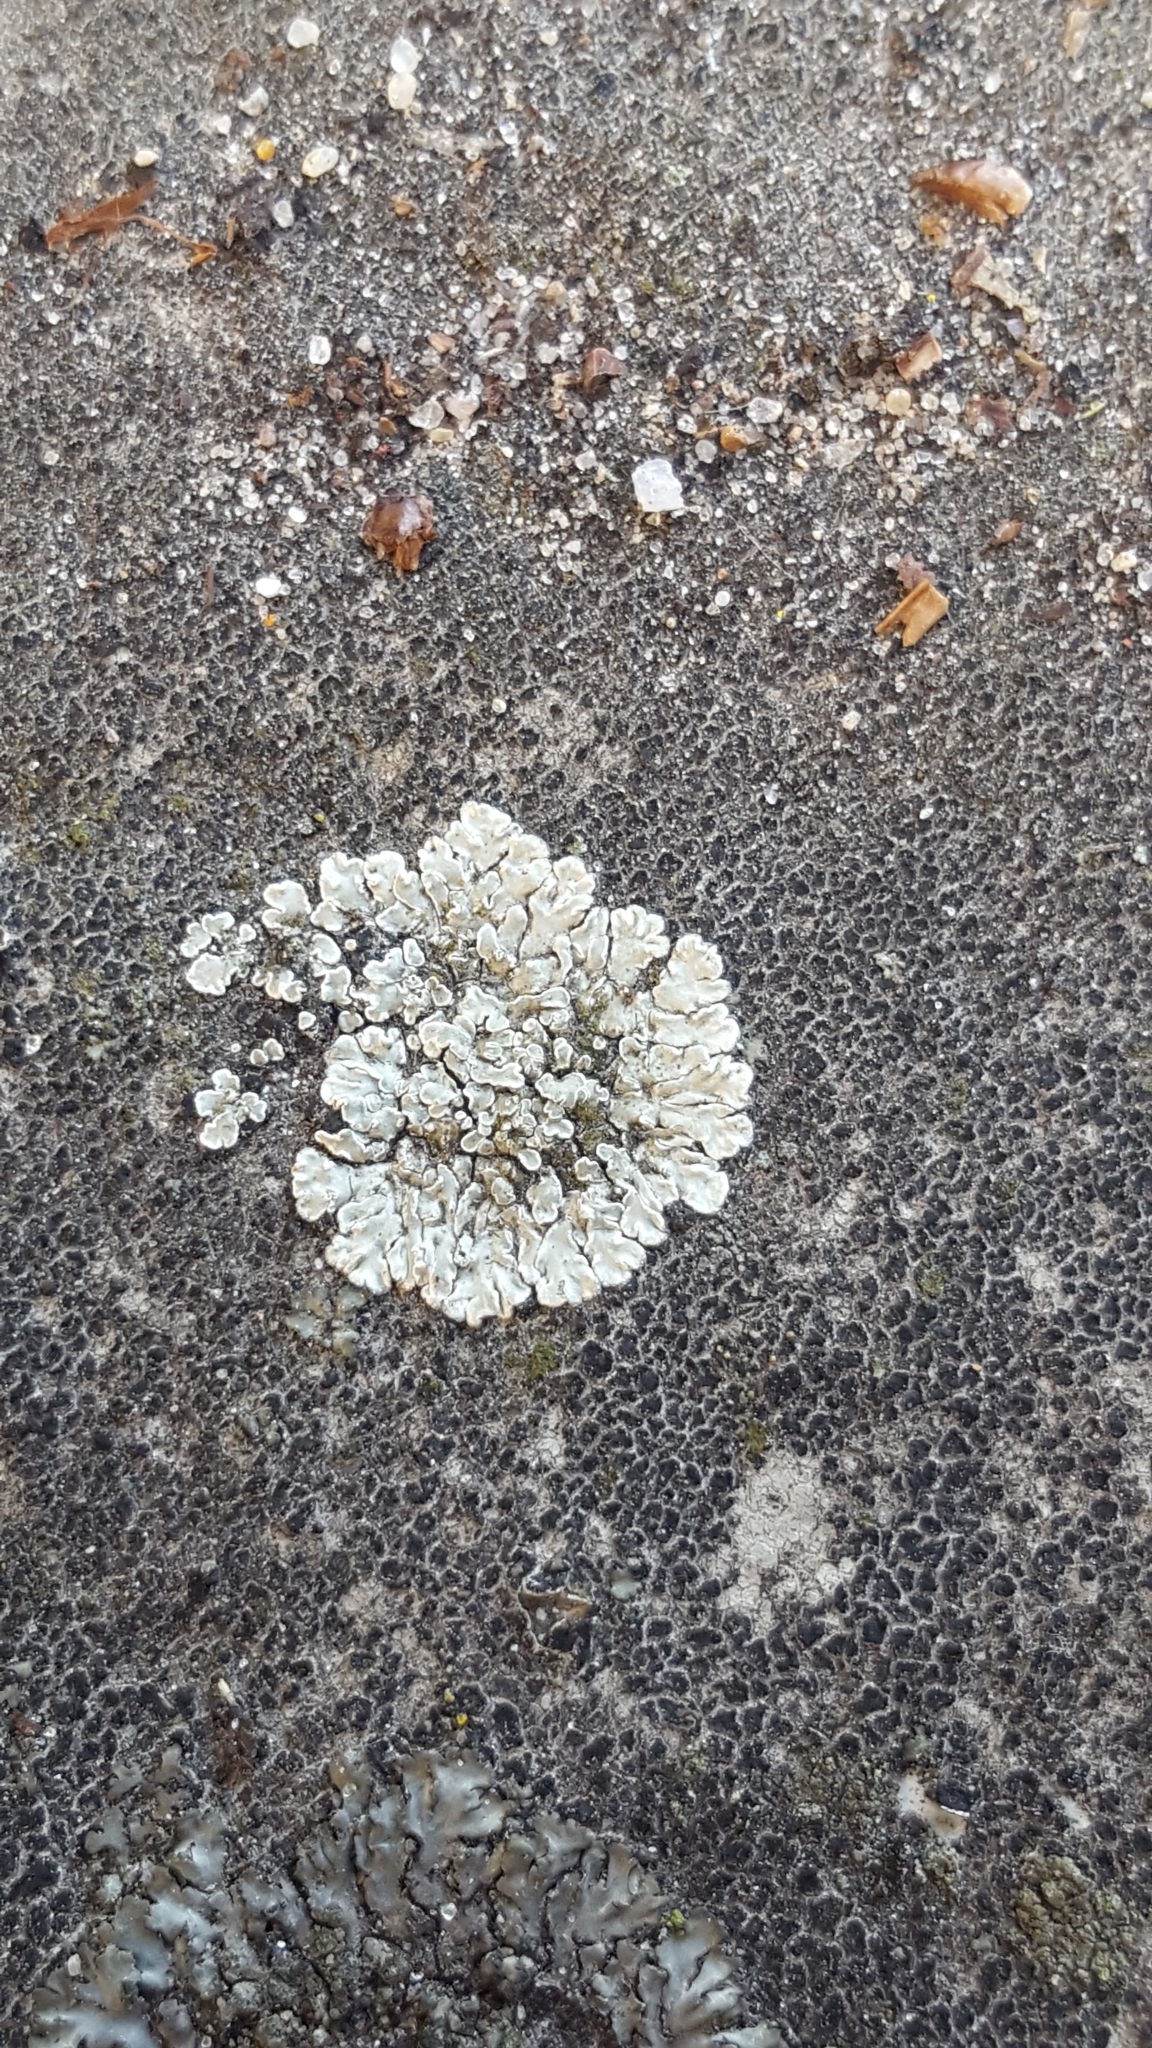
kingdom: Fungi
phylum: Ascomycota
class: Lecanoromycetes
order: Lecanorales
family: Lecanoraceae
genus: Protoparmeliopsis
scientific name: Protoparmeliopsis muralis
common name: Stonewall rim lichen
